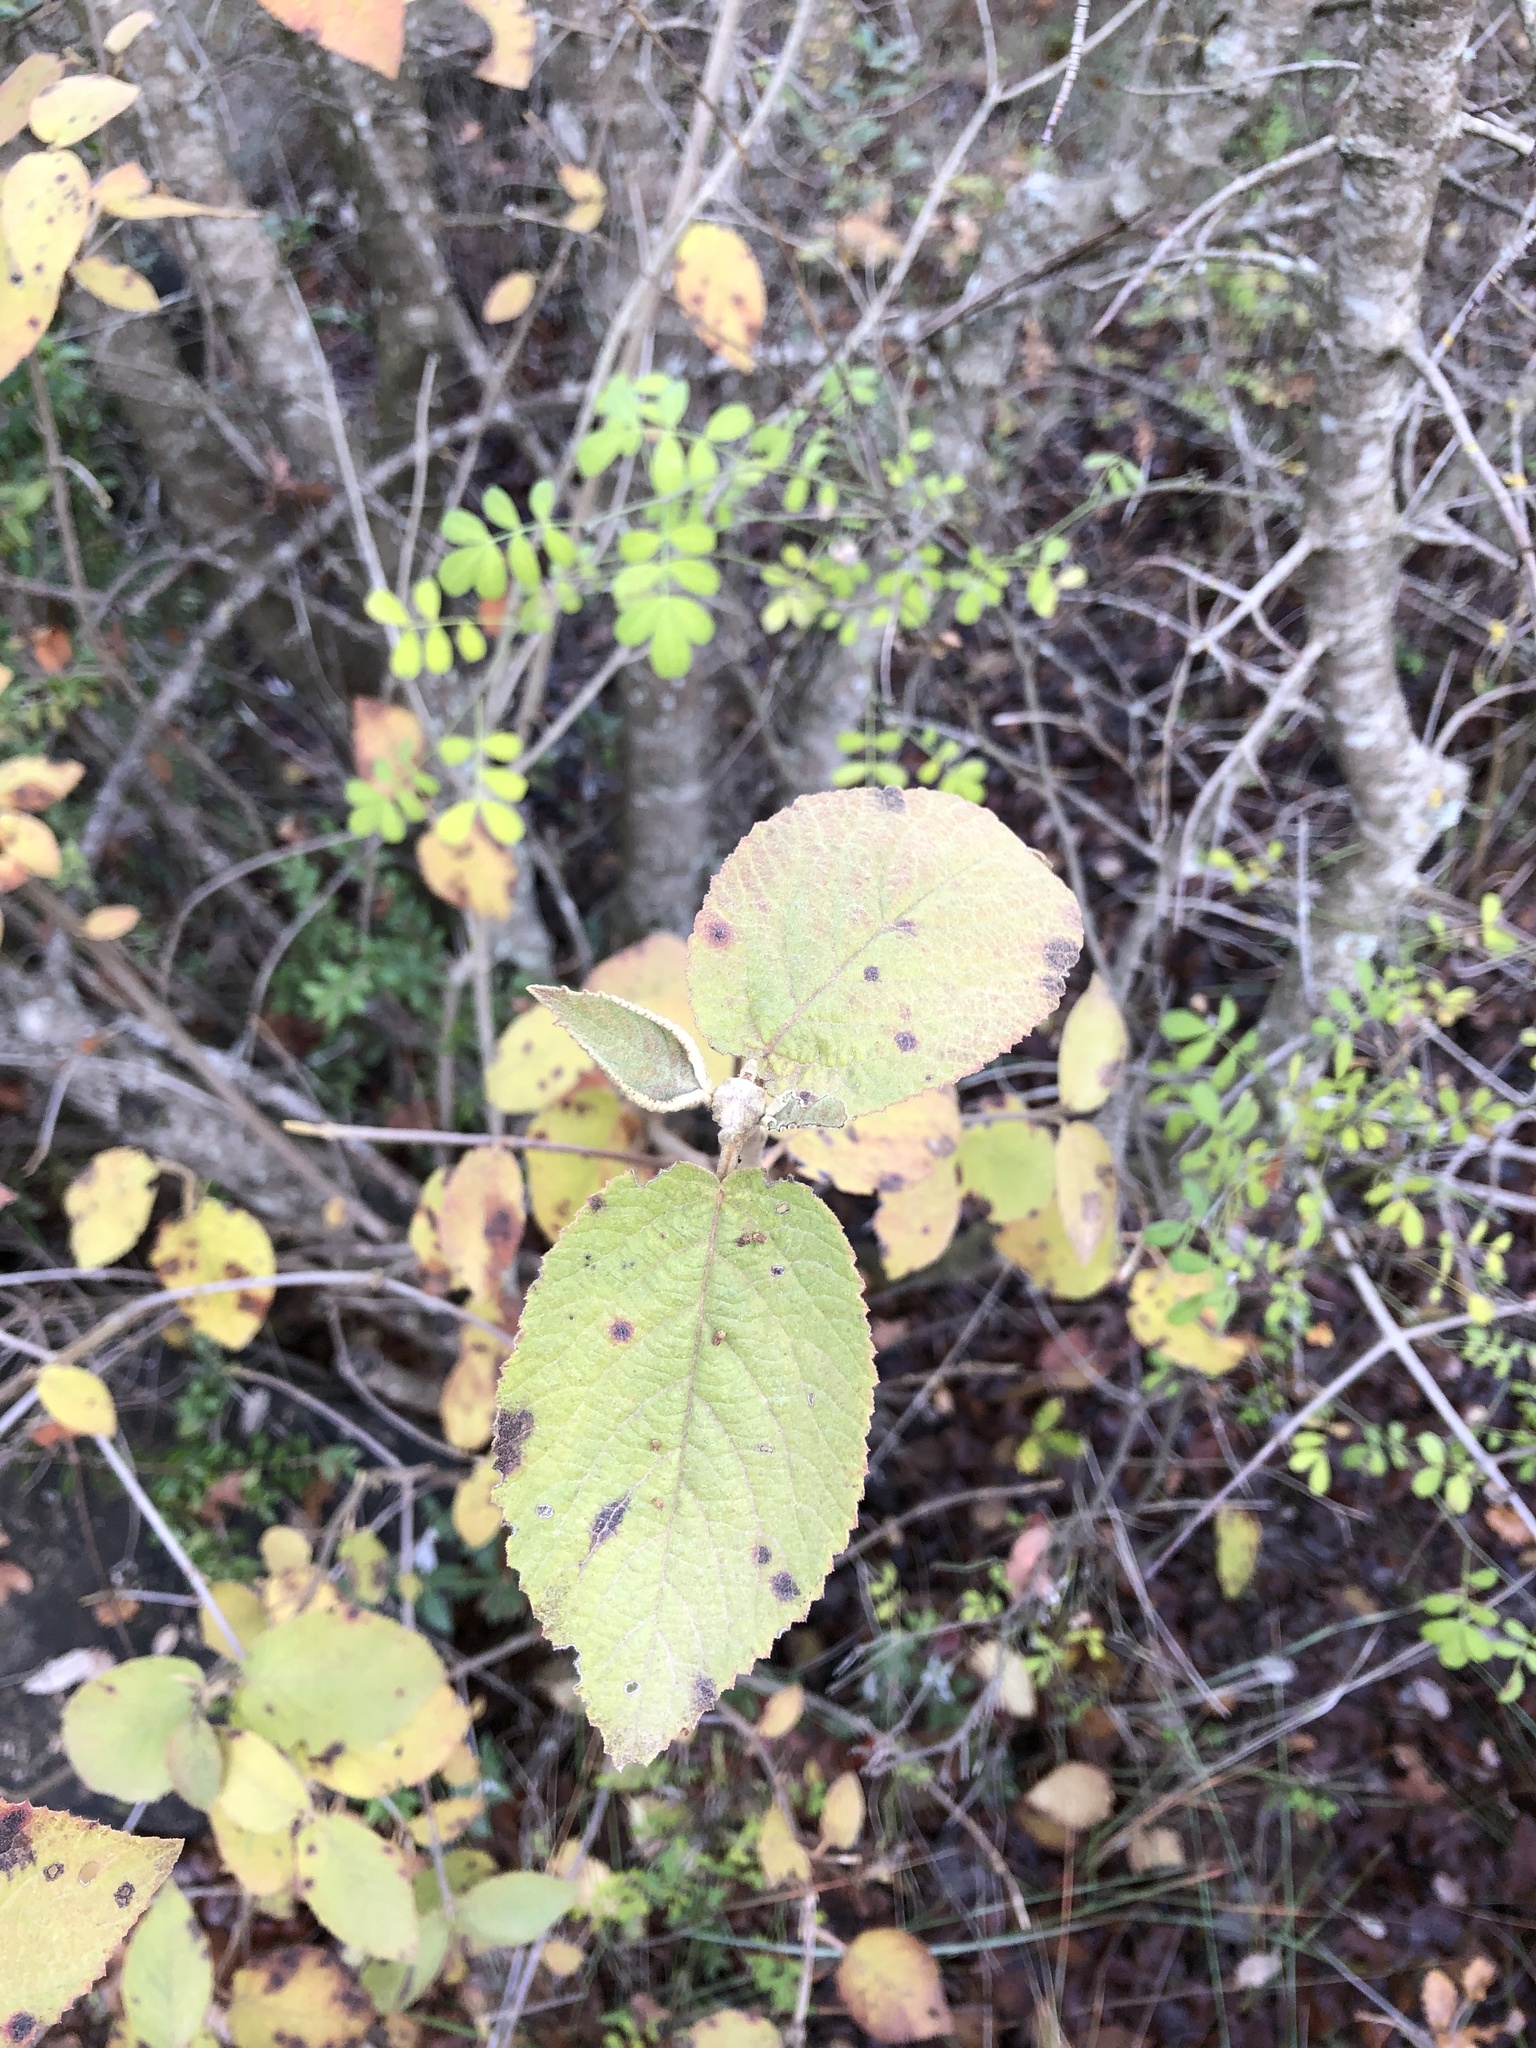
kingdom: Plantae
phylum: Tracheophyta
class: Magnoliopsida
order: Dipsacales
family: Viburnaceae
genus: Viburnum
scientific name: Viburnum lantana
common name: Wayfaring tree
